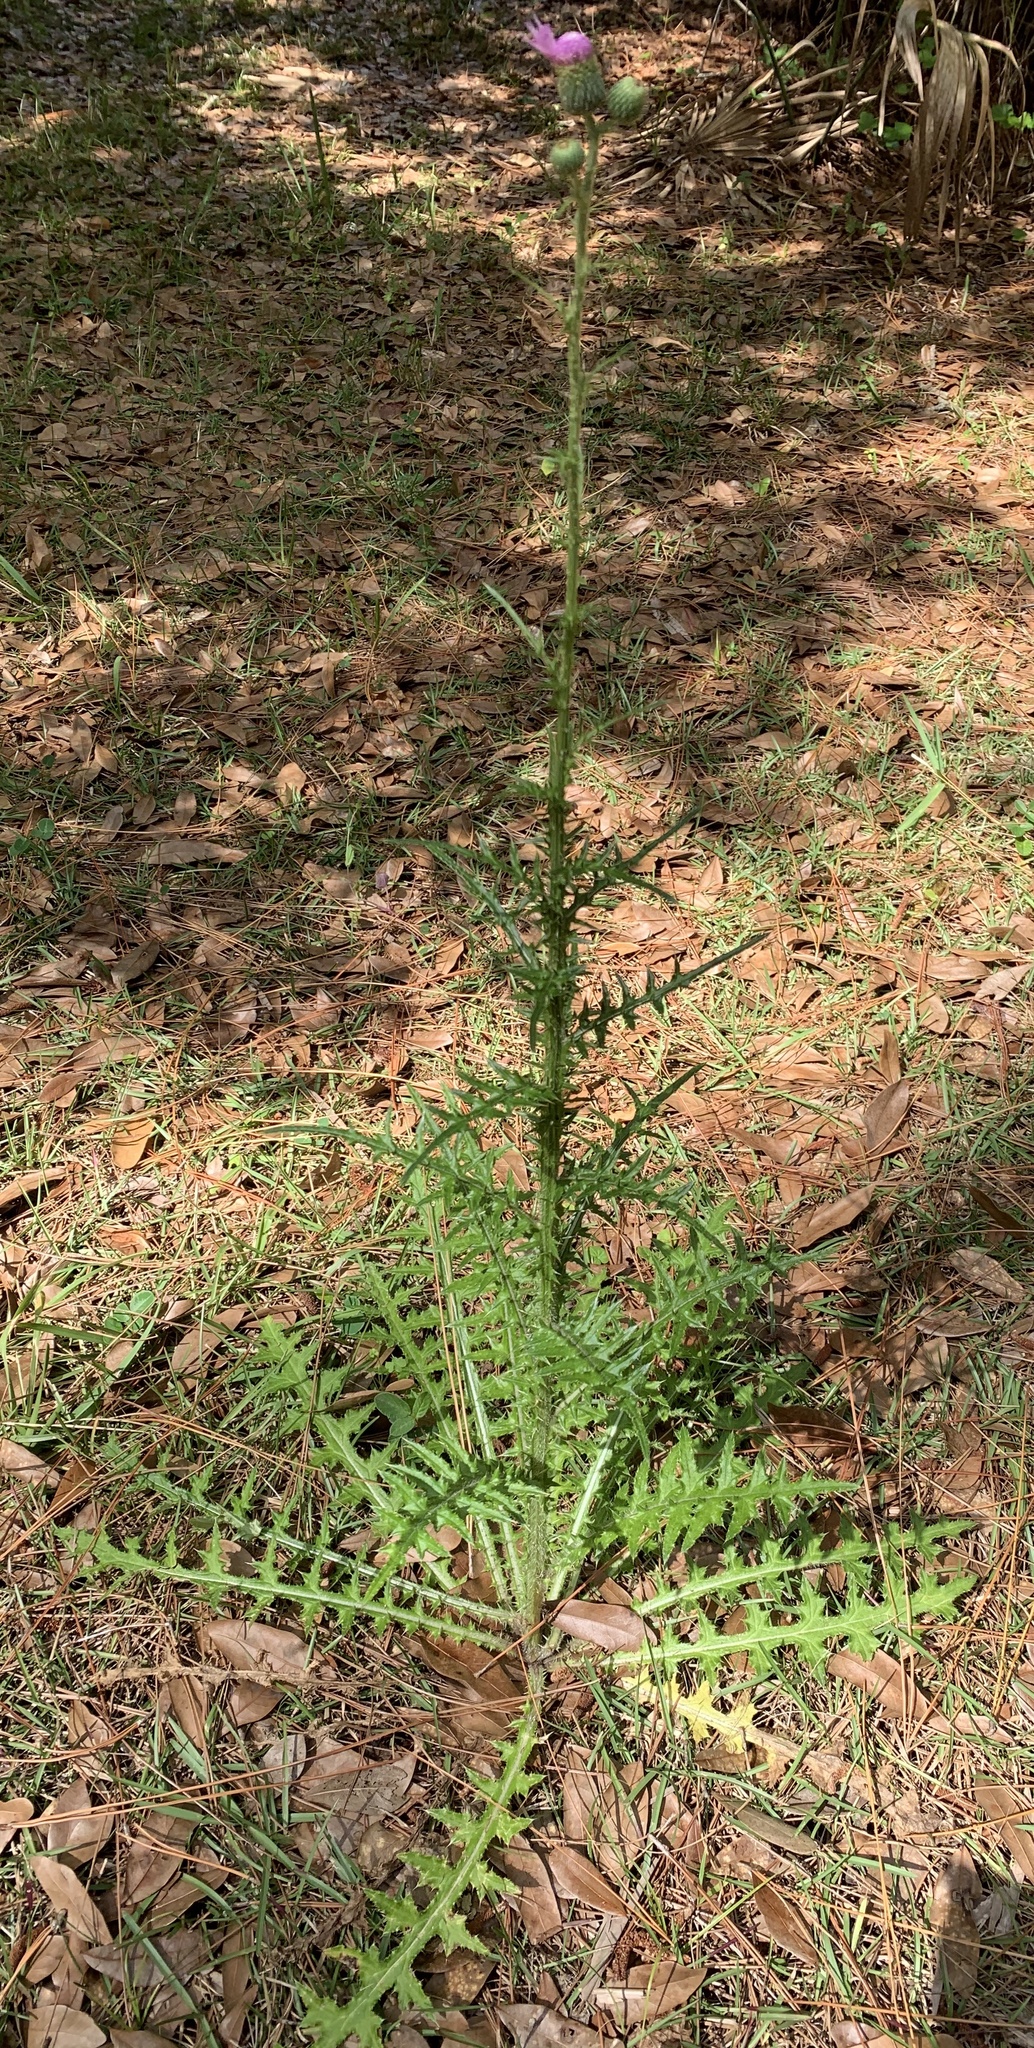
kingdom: Plantae
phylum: Tracheophyta
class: Magnoliopsida
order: Asterales
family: Asteraceae
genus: Cirsium
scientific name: Cirsium nuttalii
